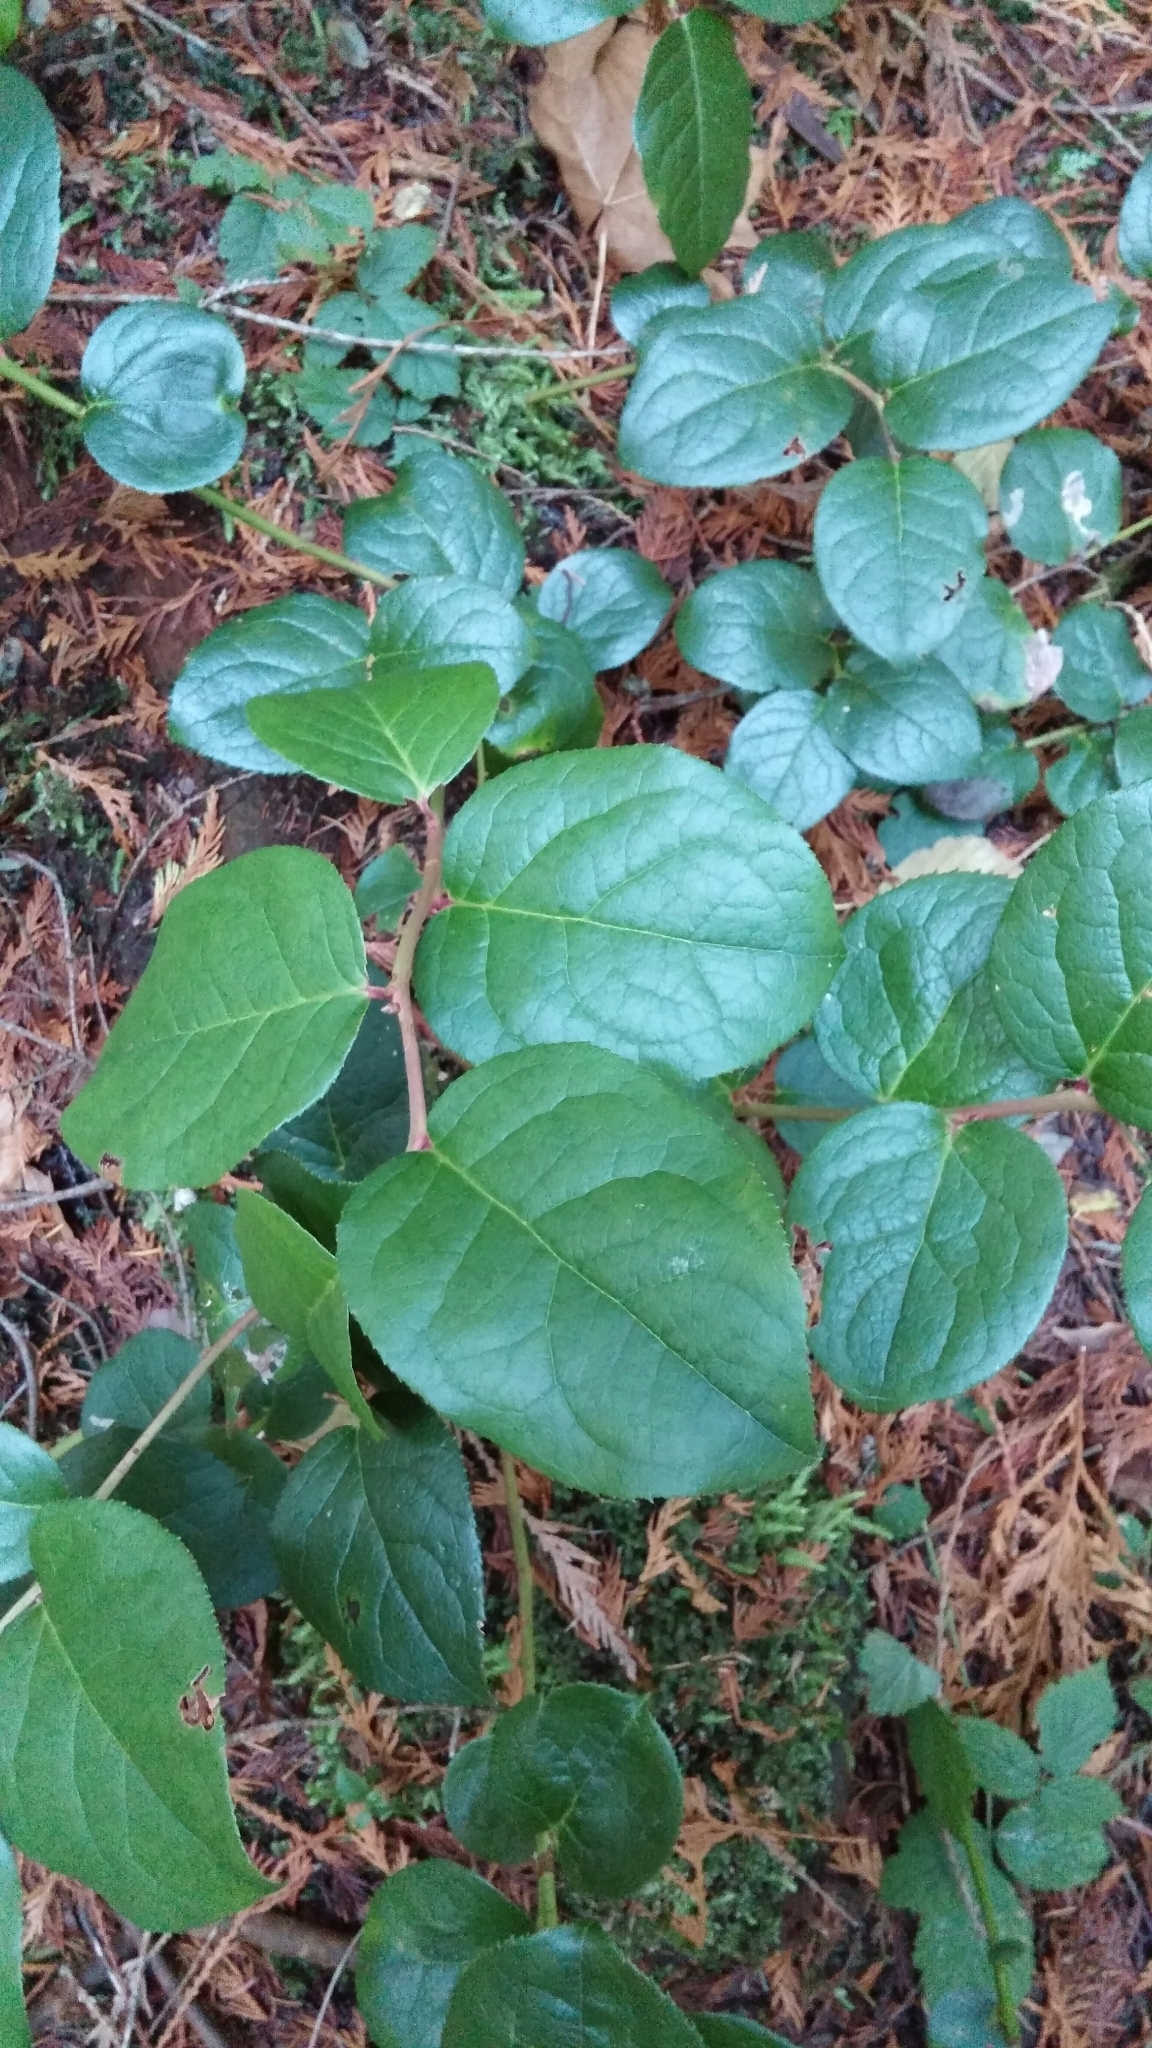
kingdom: Plantae
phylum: Tracheophyta
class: Magnoliopsida
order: Ericales
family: Ericaceae
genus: Gaultheria
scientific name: Gaultheria shallon
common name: Shallon
